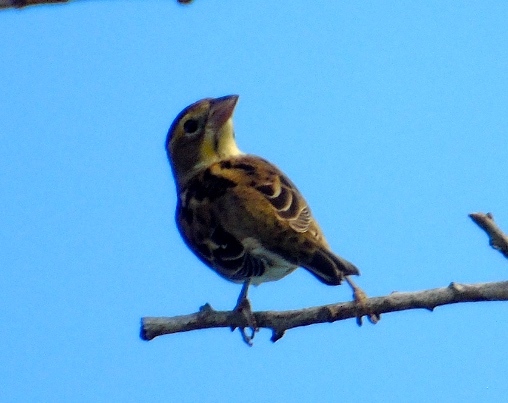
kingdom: Animalia
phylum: Chordata
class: Aves
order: Passeriformes
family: Cardinalidae
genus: Spiza
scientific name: Spiza americana
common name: Dickcissel
